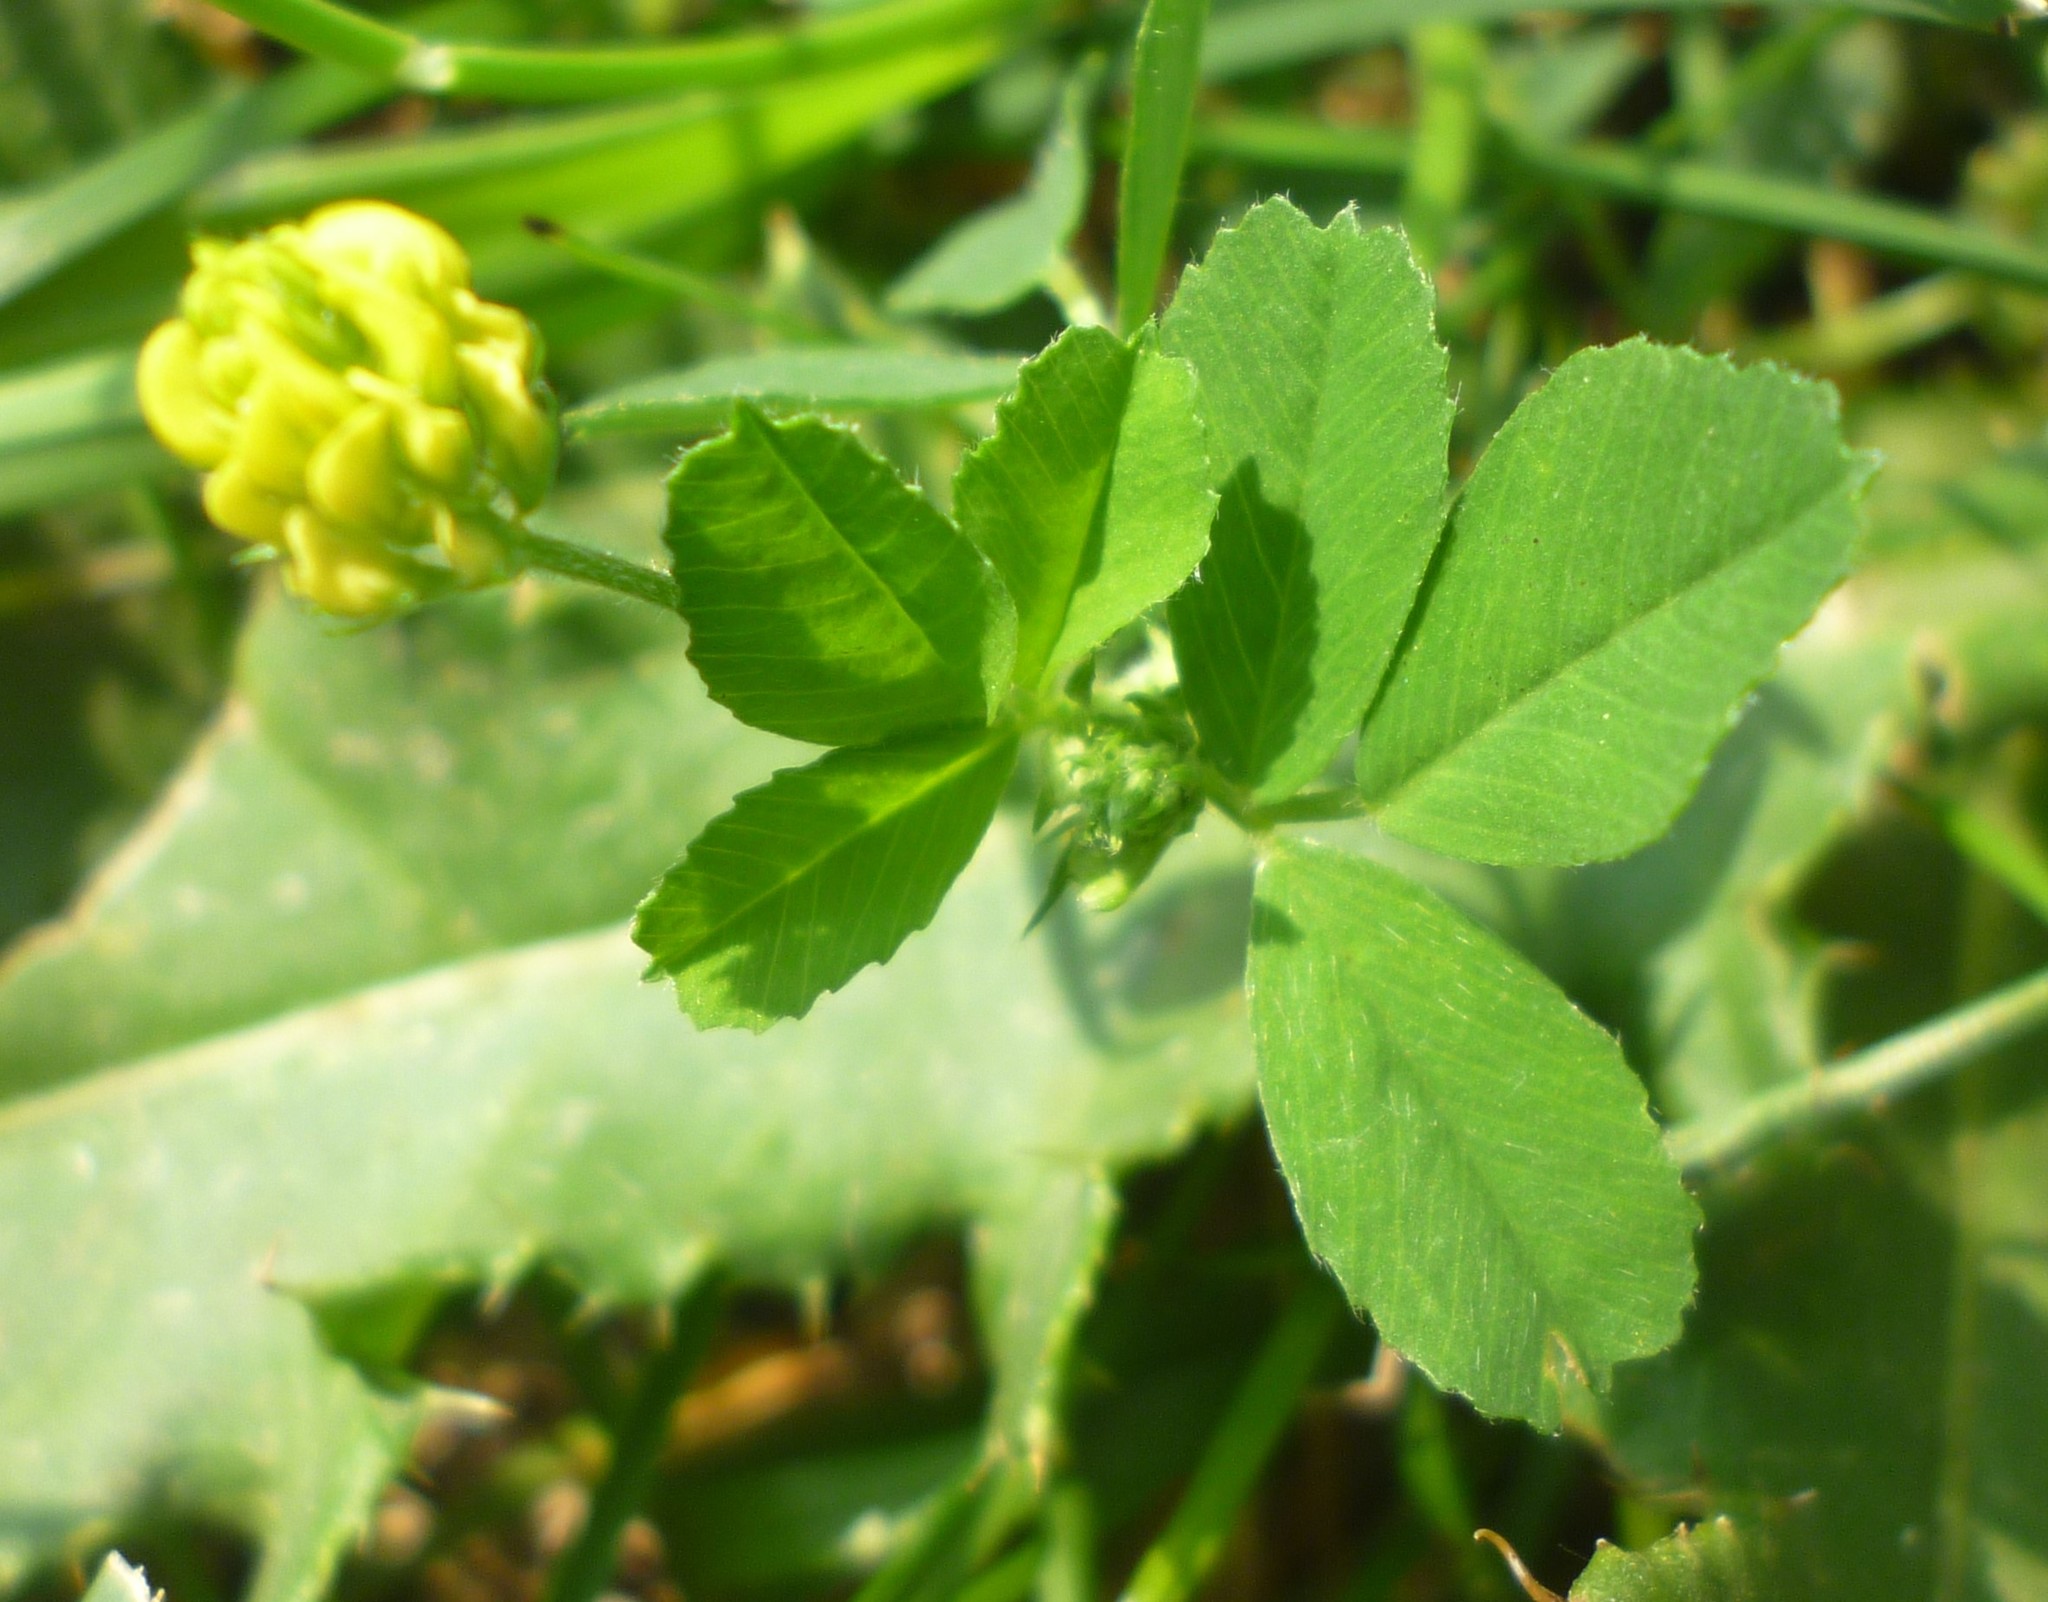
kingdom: Plantae
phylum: Tracheophyta
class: Magnoliopsida
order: Fabales
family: Fabaceae
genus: Medicago
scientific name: Medicago lupulina
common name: Black medick
